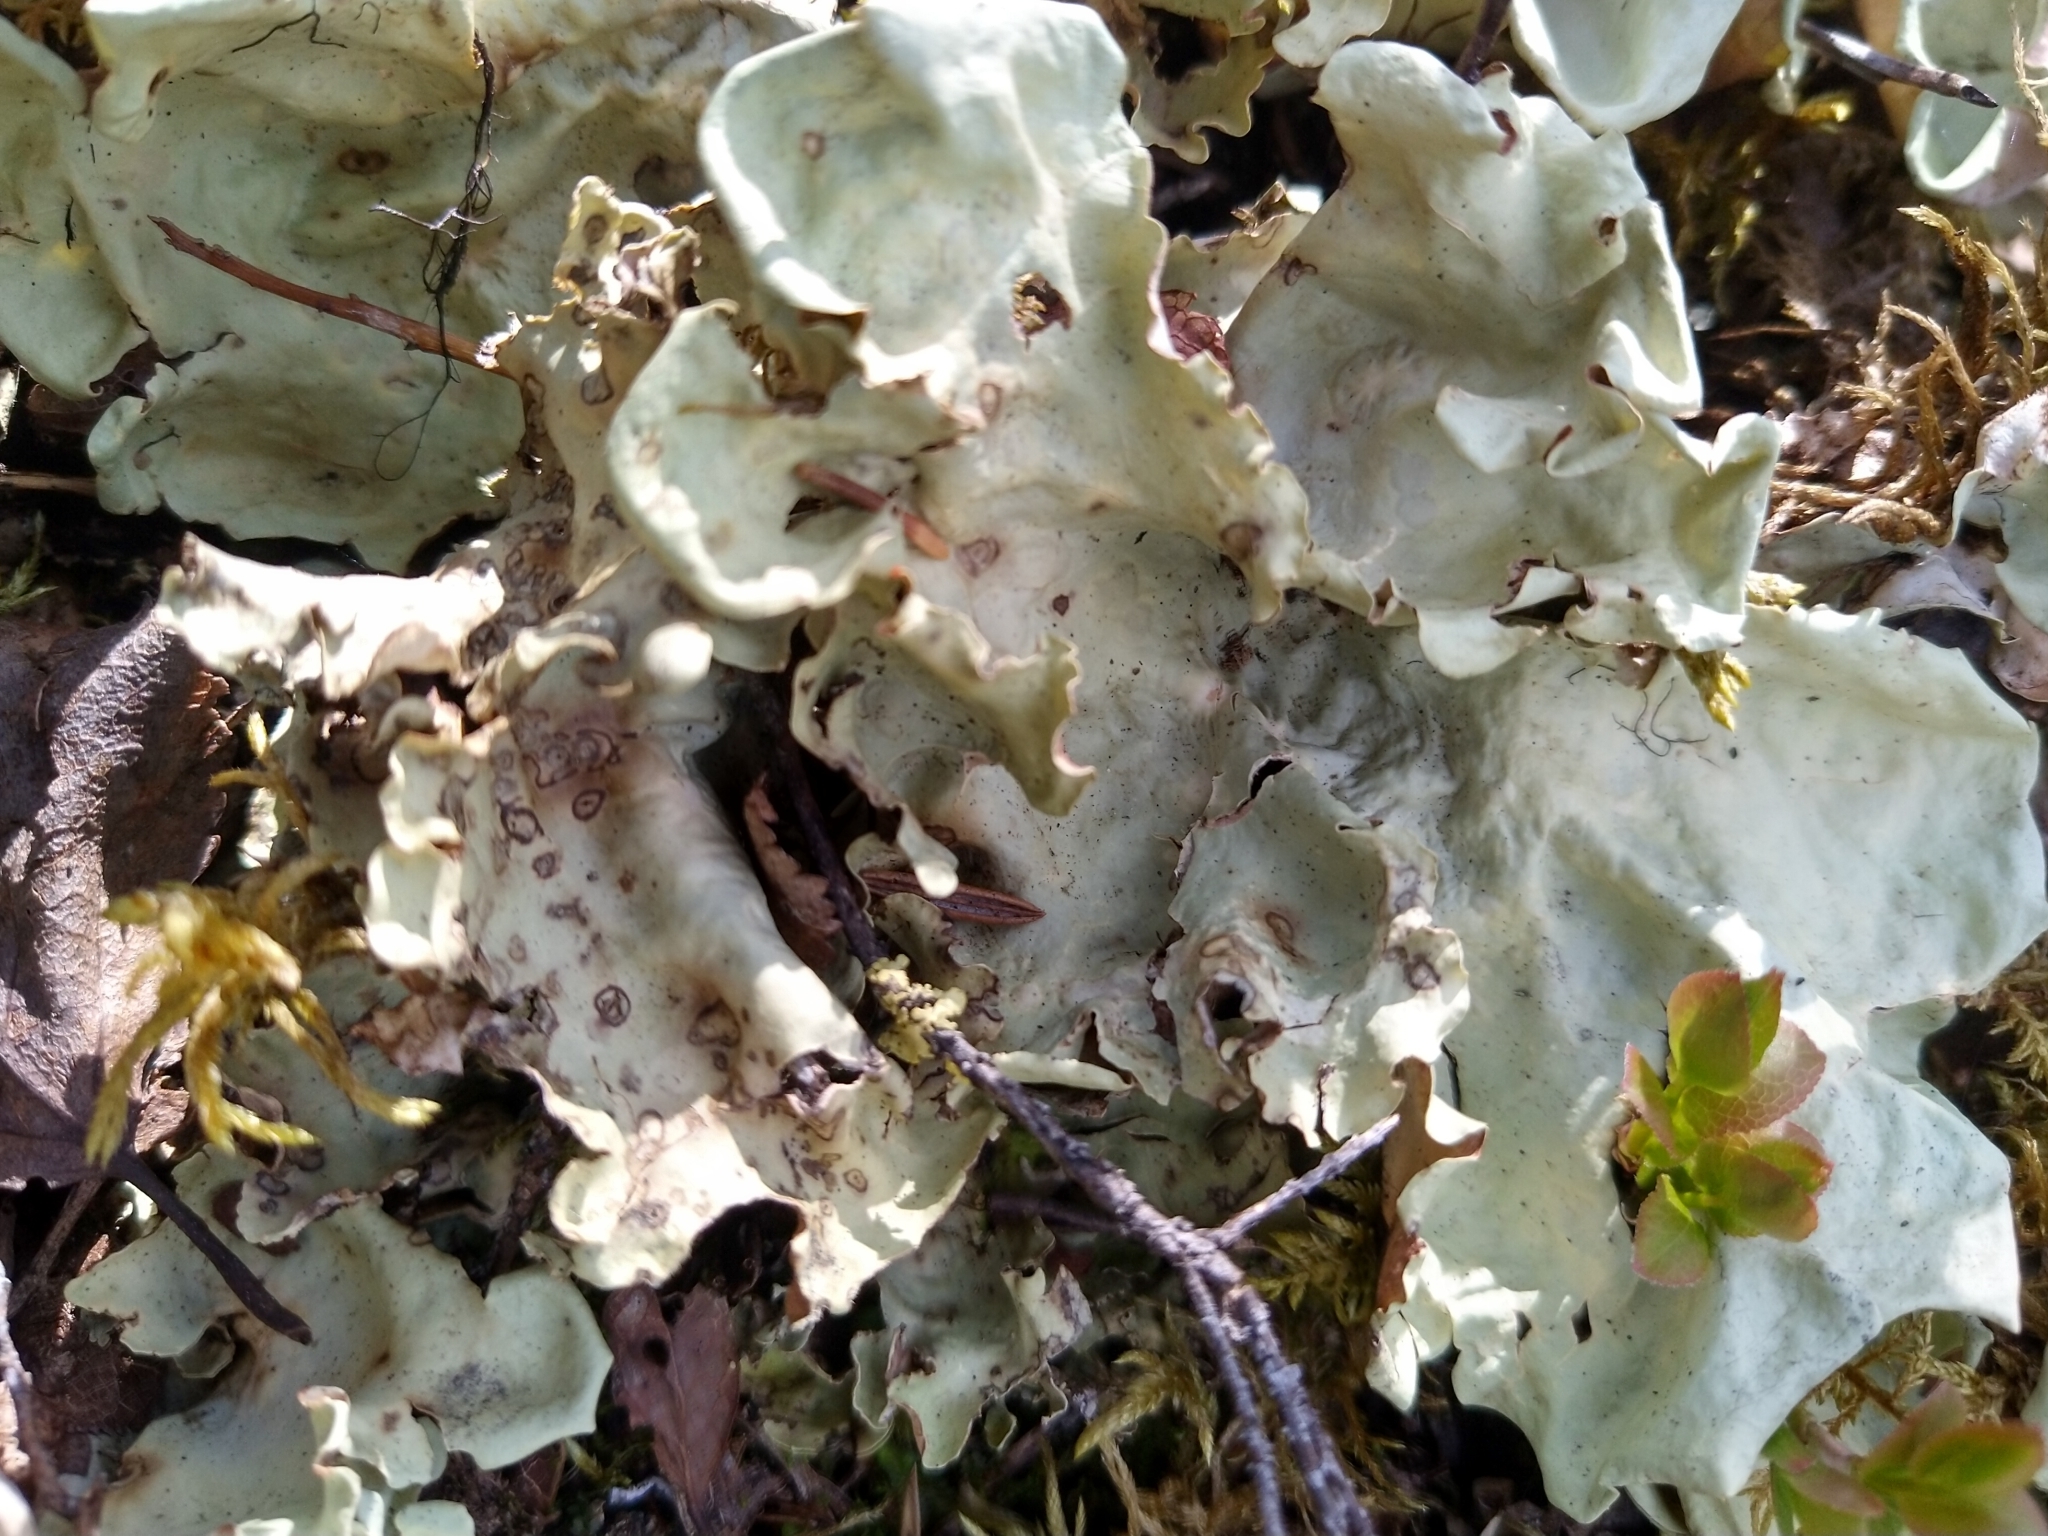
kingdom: Fungi
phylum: Ascomycota
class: Lecanoromycetes
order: Peltigerales
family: Nephromataceae
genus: Nephroma
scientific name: Nephroma arcticum
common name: Arctic kidney-lichen
